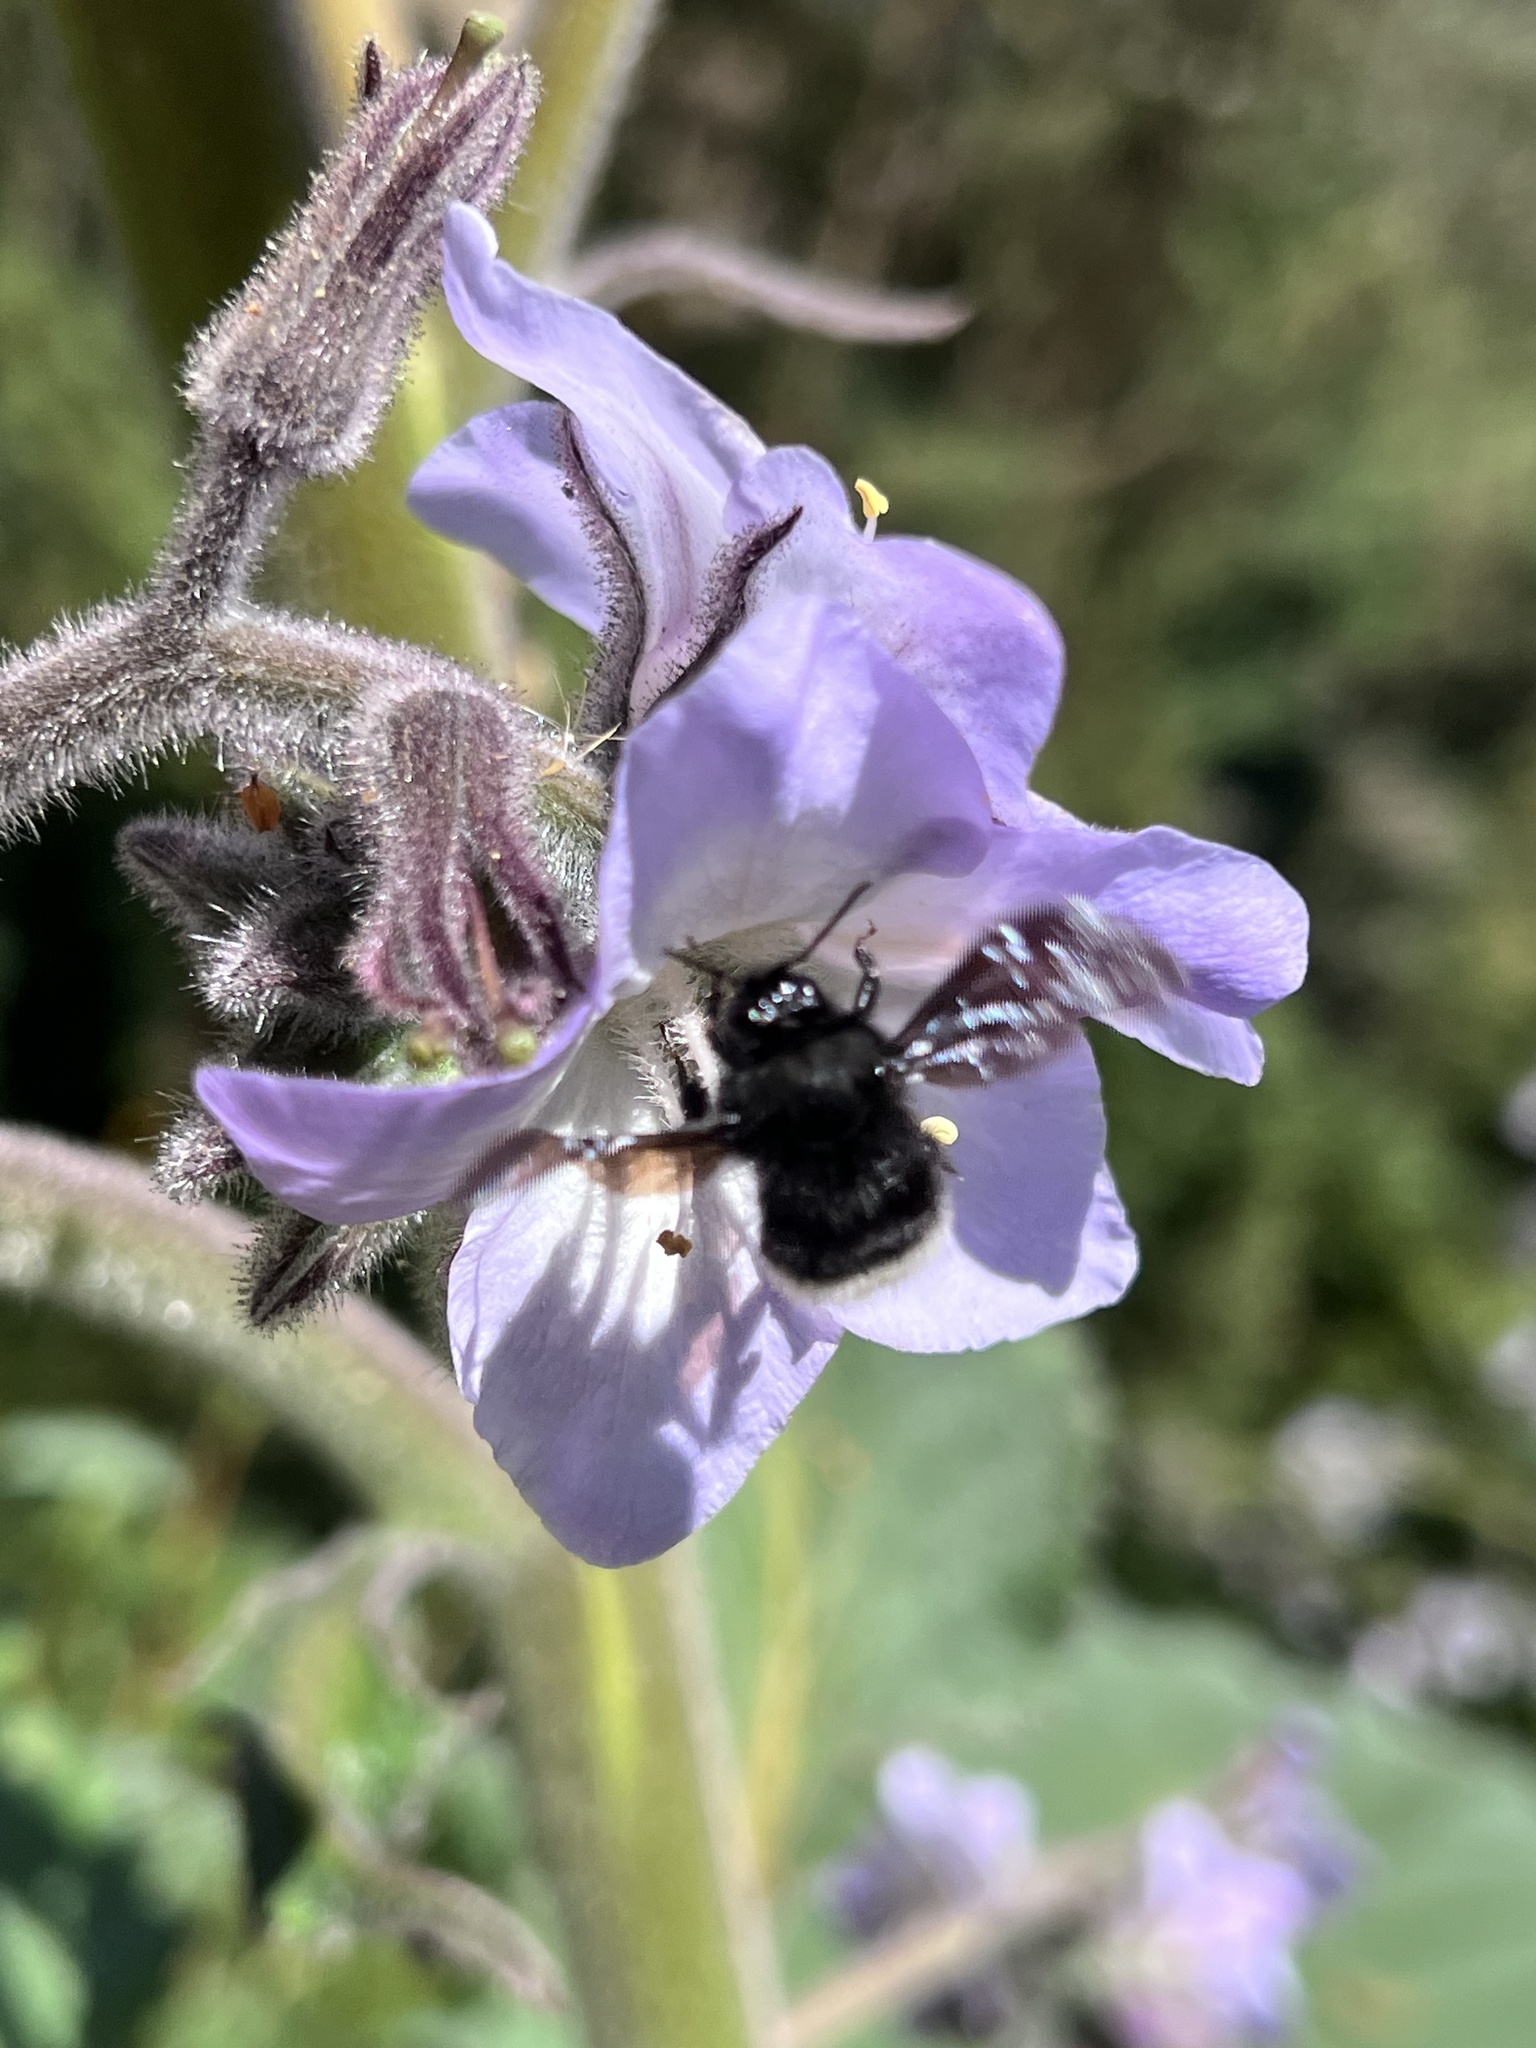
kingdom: Animalia
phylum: Arthropoda
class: Insecta
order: Hymenoptera
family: Apidae
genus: Bombus
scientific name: Bombus volucelloides
